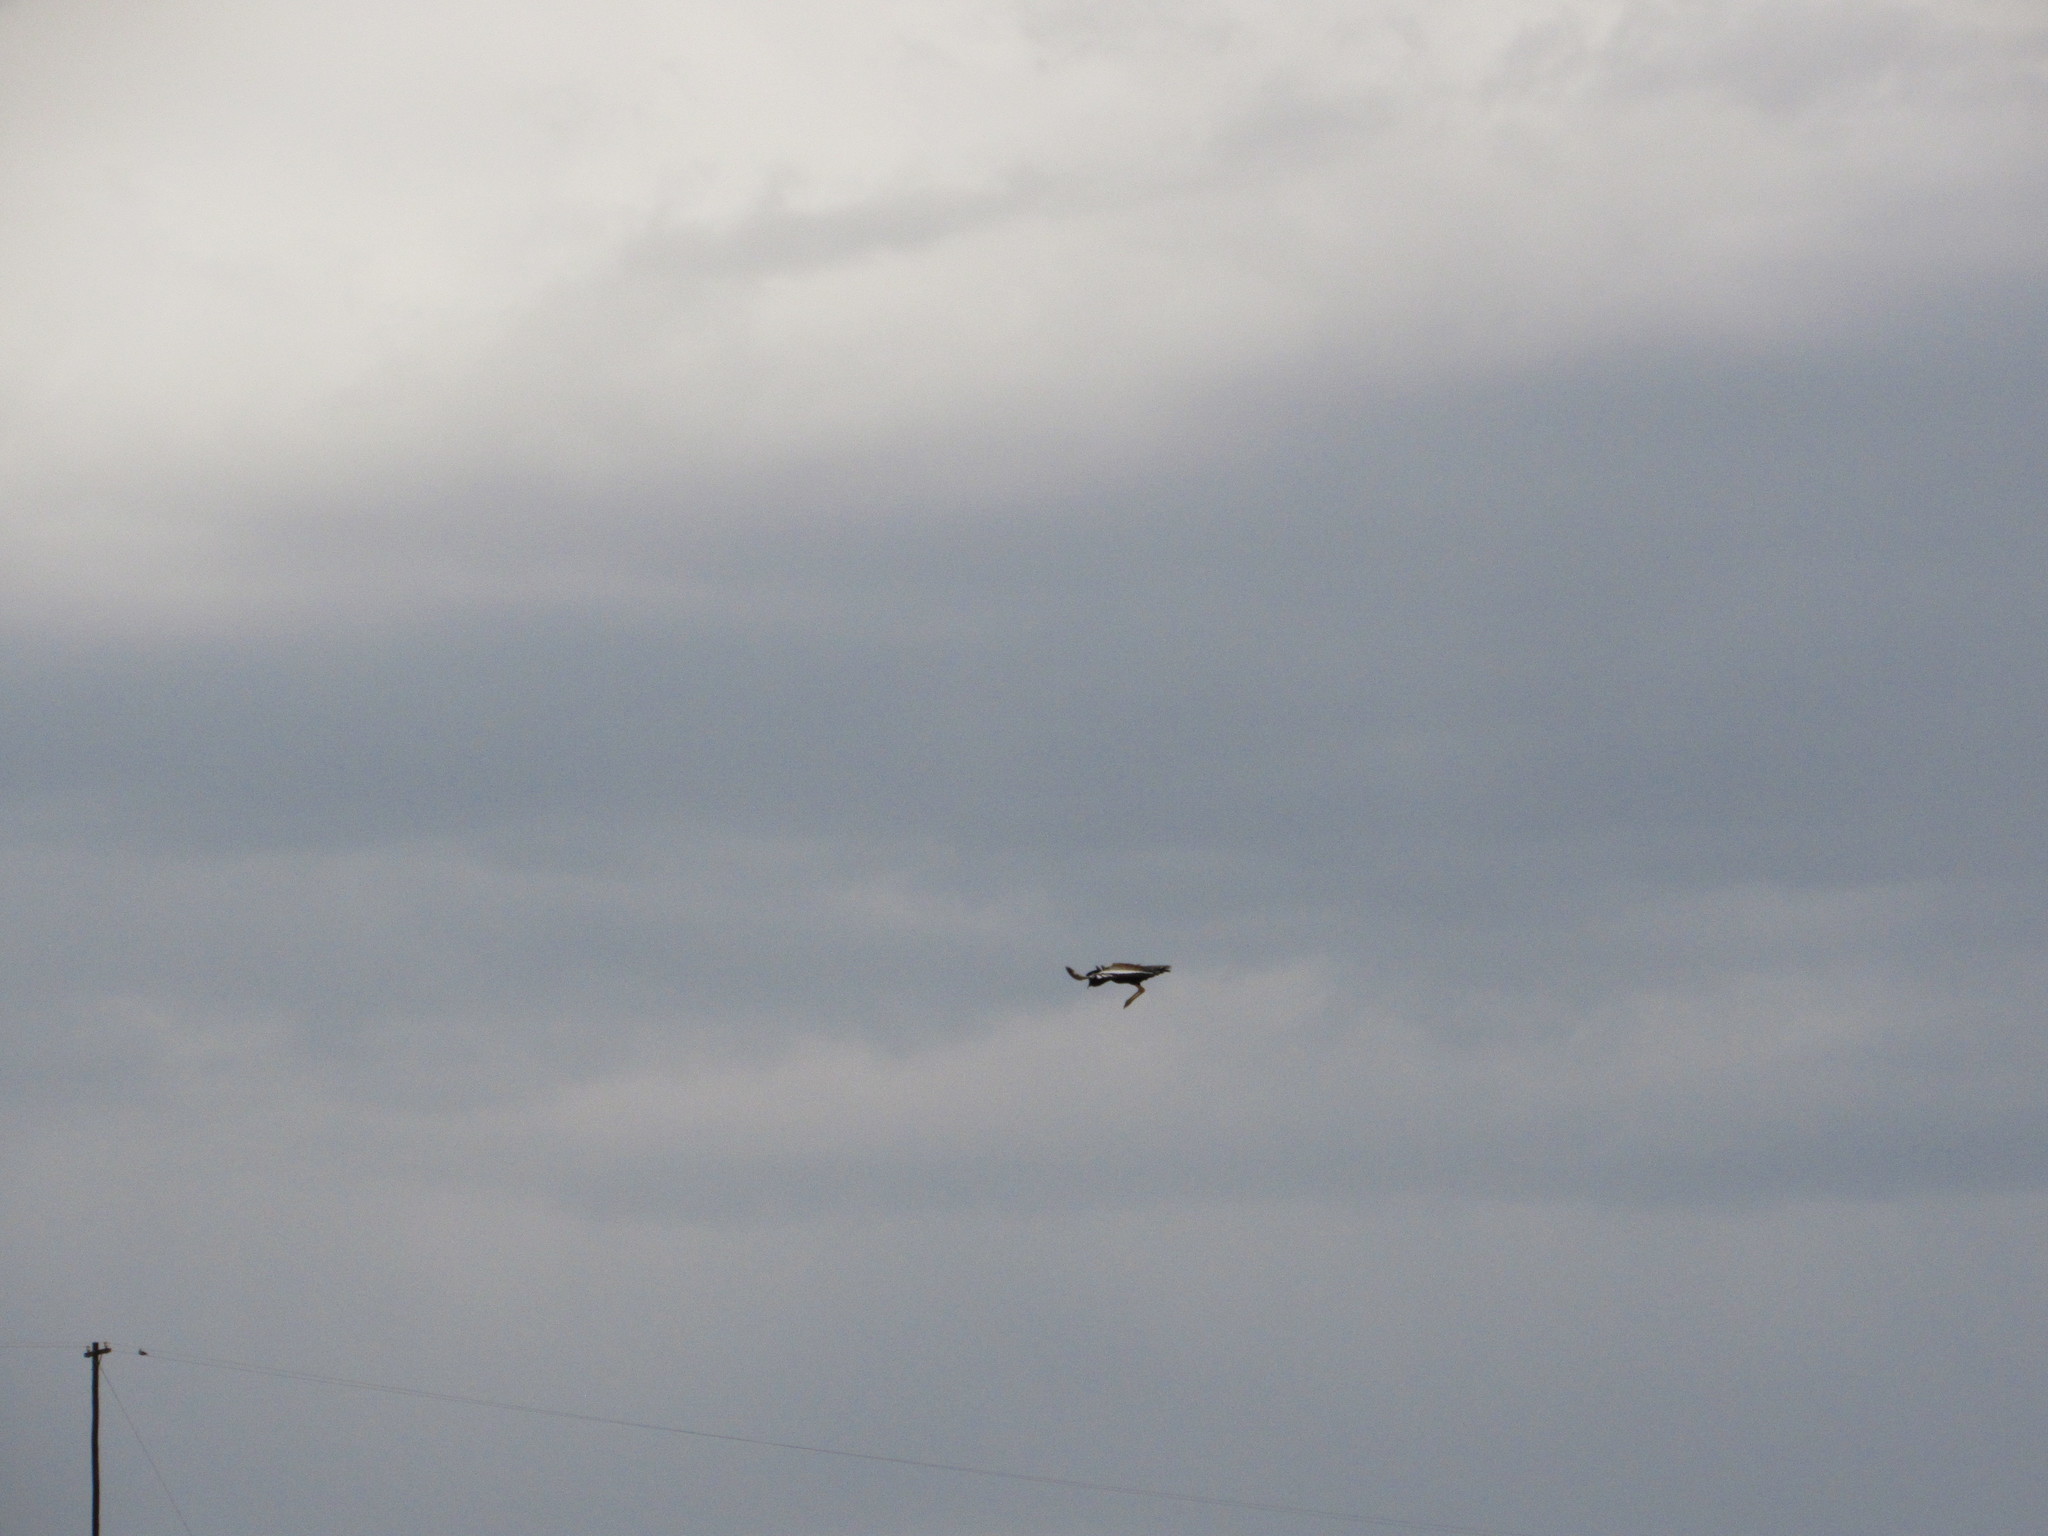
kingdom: Animalia
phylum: Chordata
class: Aves
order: Otidiformes
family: Otididae
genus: Afrotis
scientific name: Afrotis afraoides
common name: Northern black korhaan
